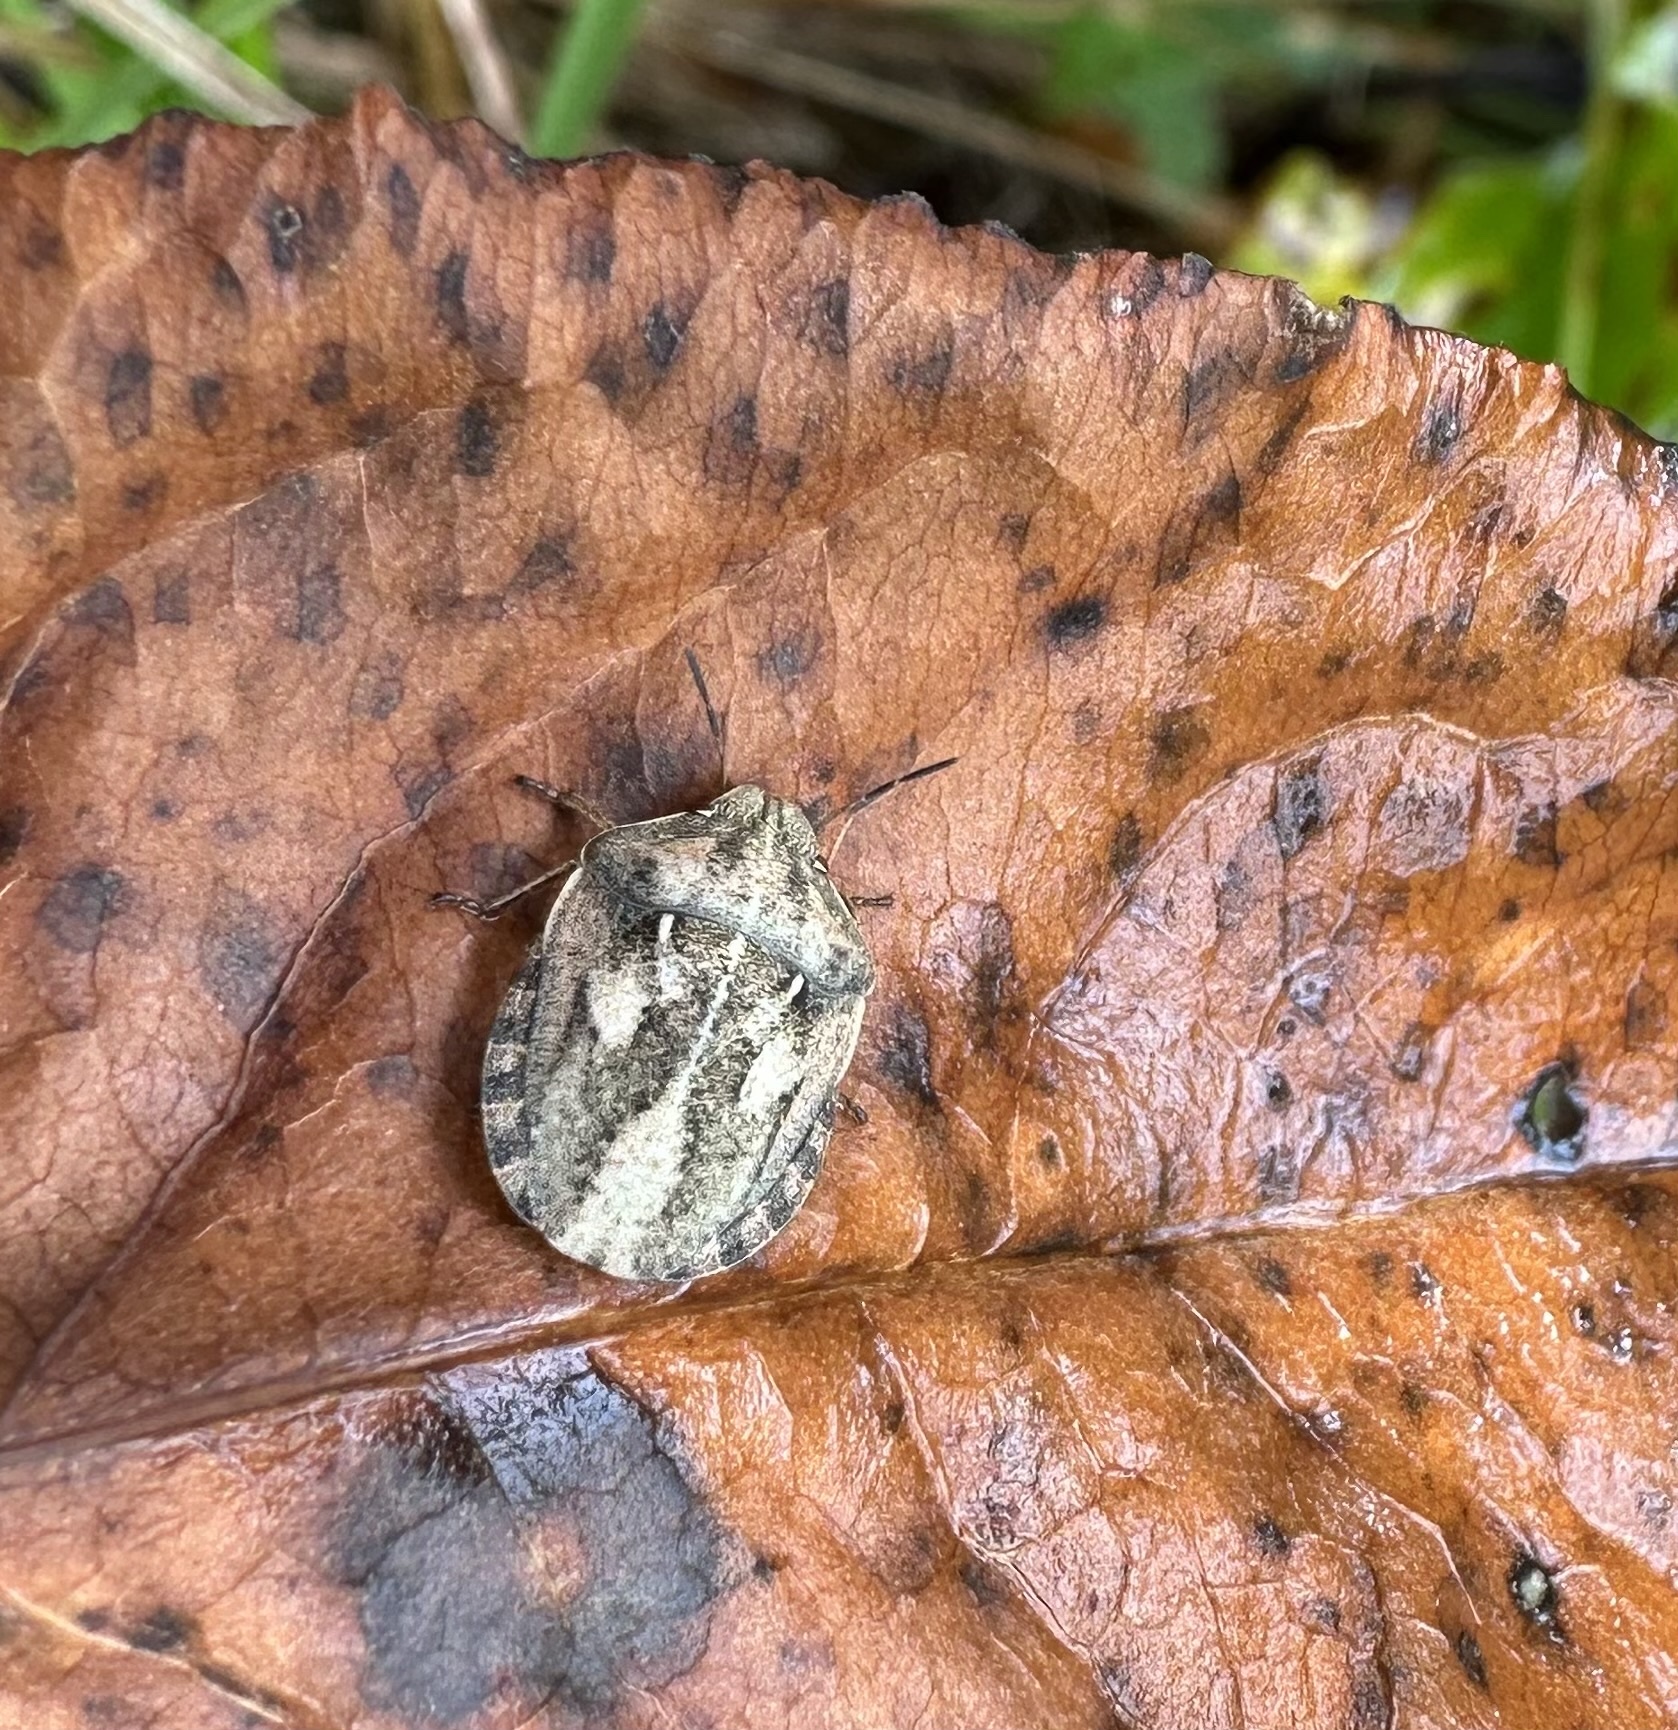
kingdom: Animalia
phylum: Arthropoda
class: Insecta
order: Hemiptera
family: Scutelleridae
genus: Eurygaster
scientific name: Eurygaster testudinaria
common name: Tortoise bug
